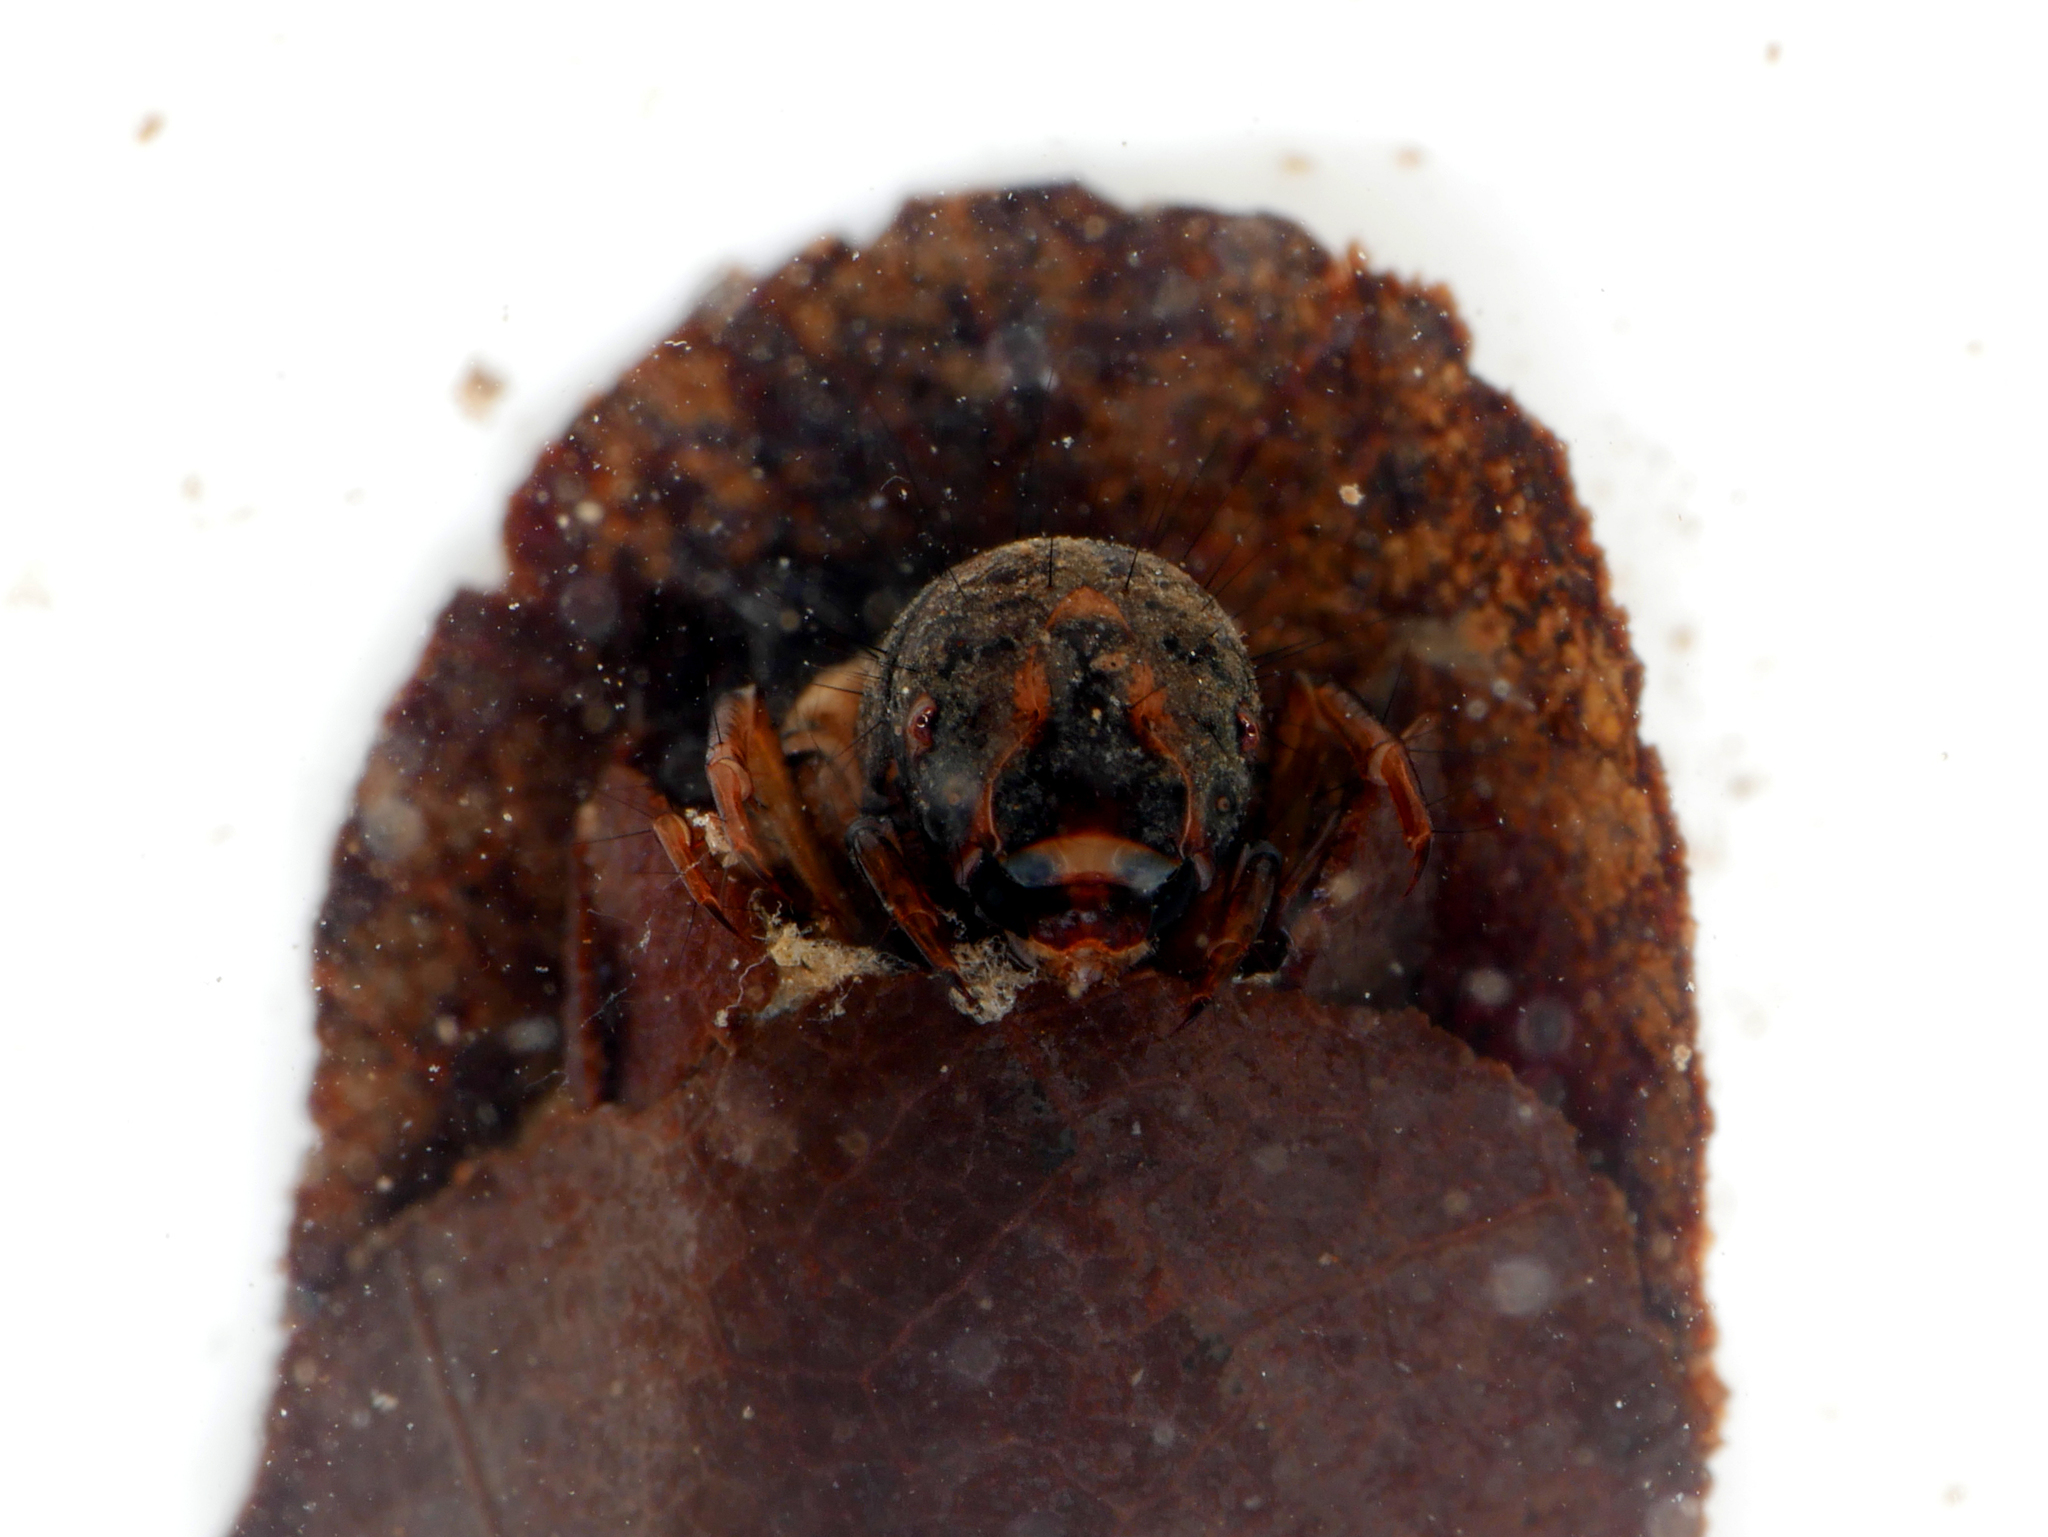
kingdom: Animalia
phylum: Arthropoda
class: Insecta
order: Trichoptera
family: Limnephilidae
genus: Glyphotaelius
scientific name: Glyphotaelius pellucidus
